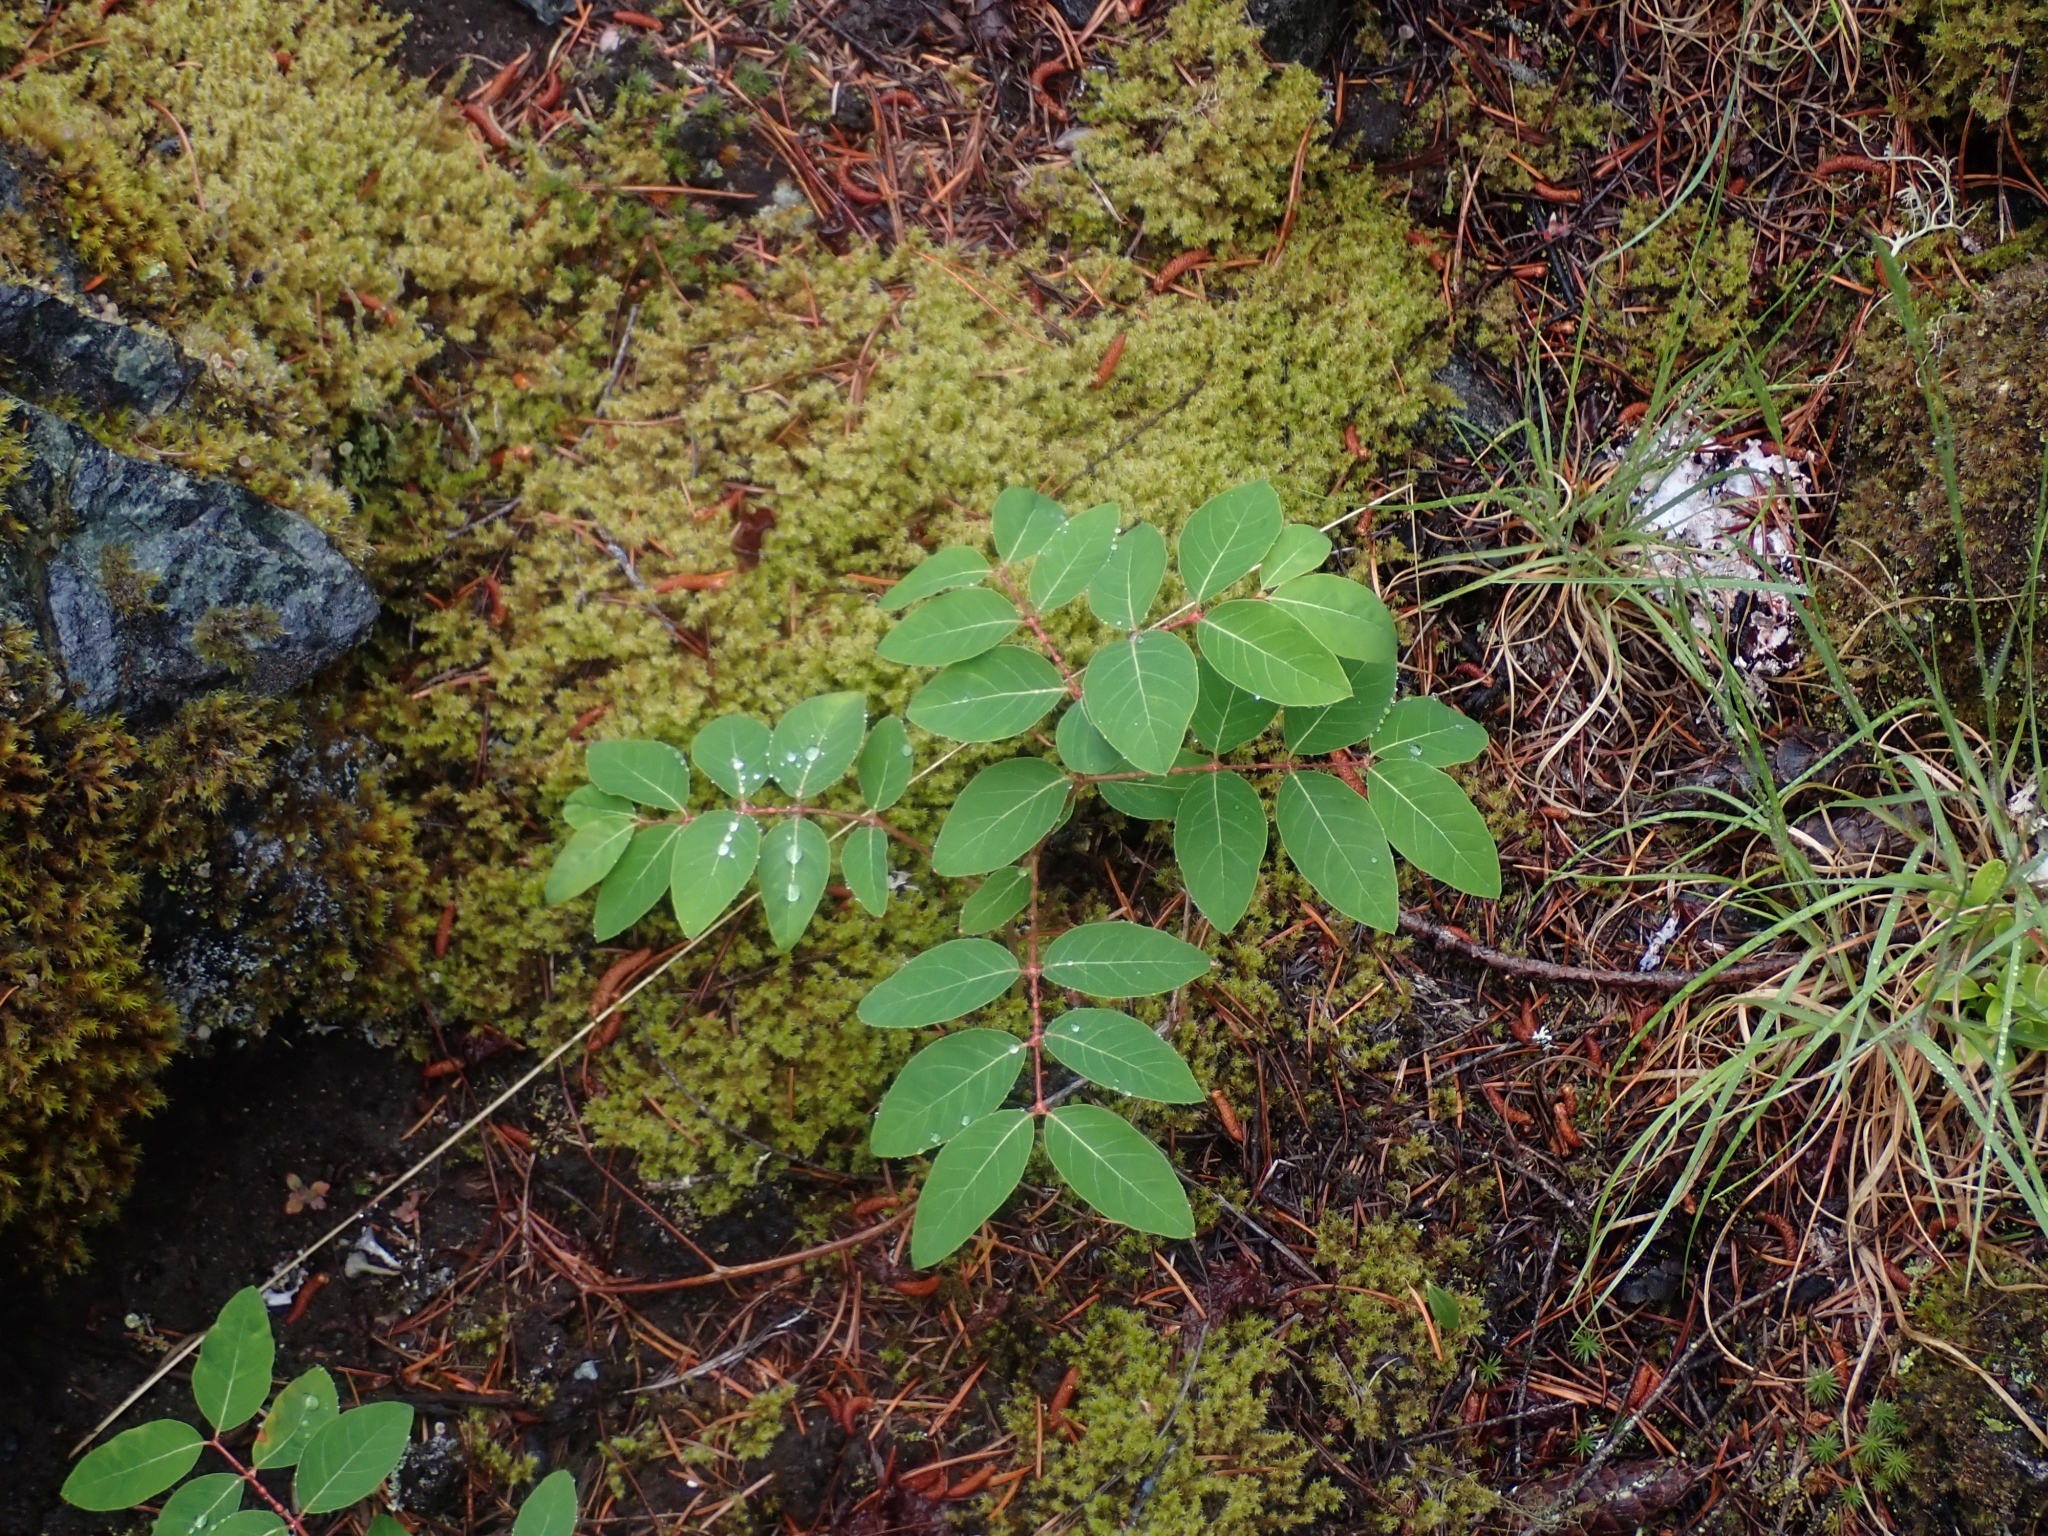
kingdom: Plantae
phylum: Tracheophyta
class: Magnoliopsida
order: Gentianales
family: Apocynaceae
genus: Apocynum
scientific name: Apocynum androsaemifolium
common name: Spreading dogbane
